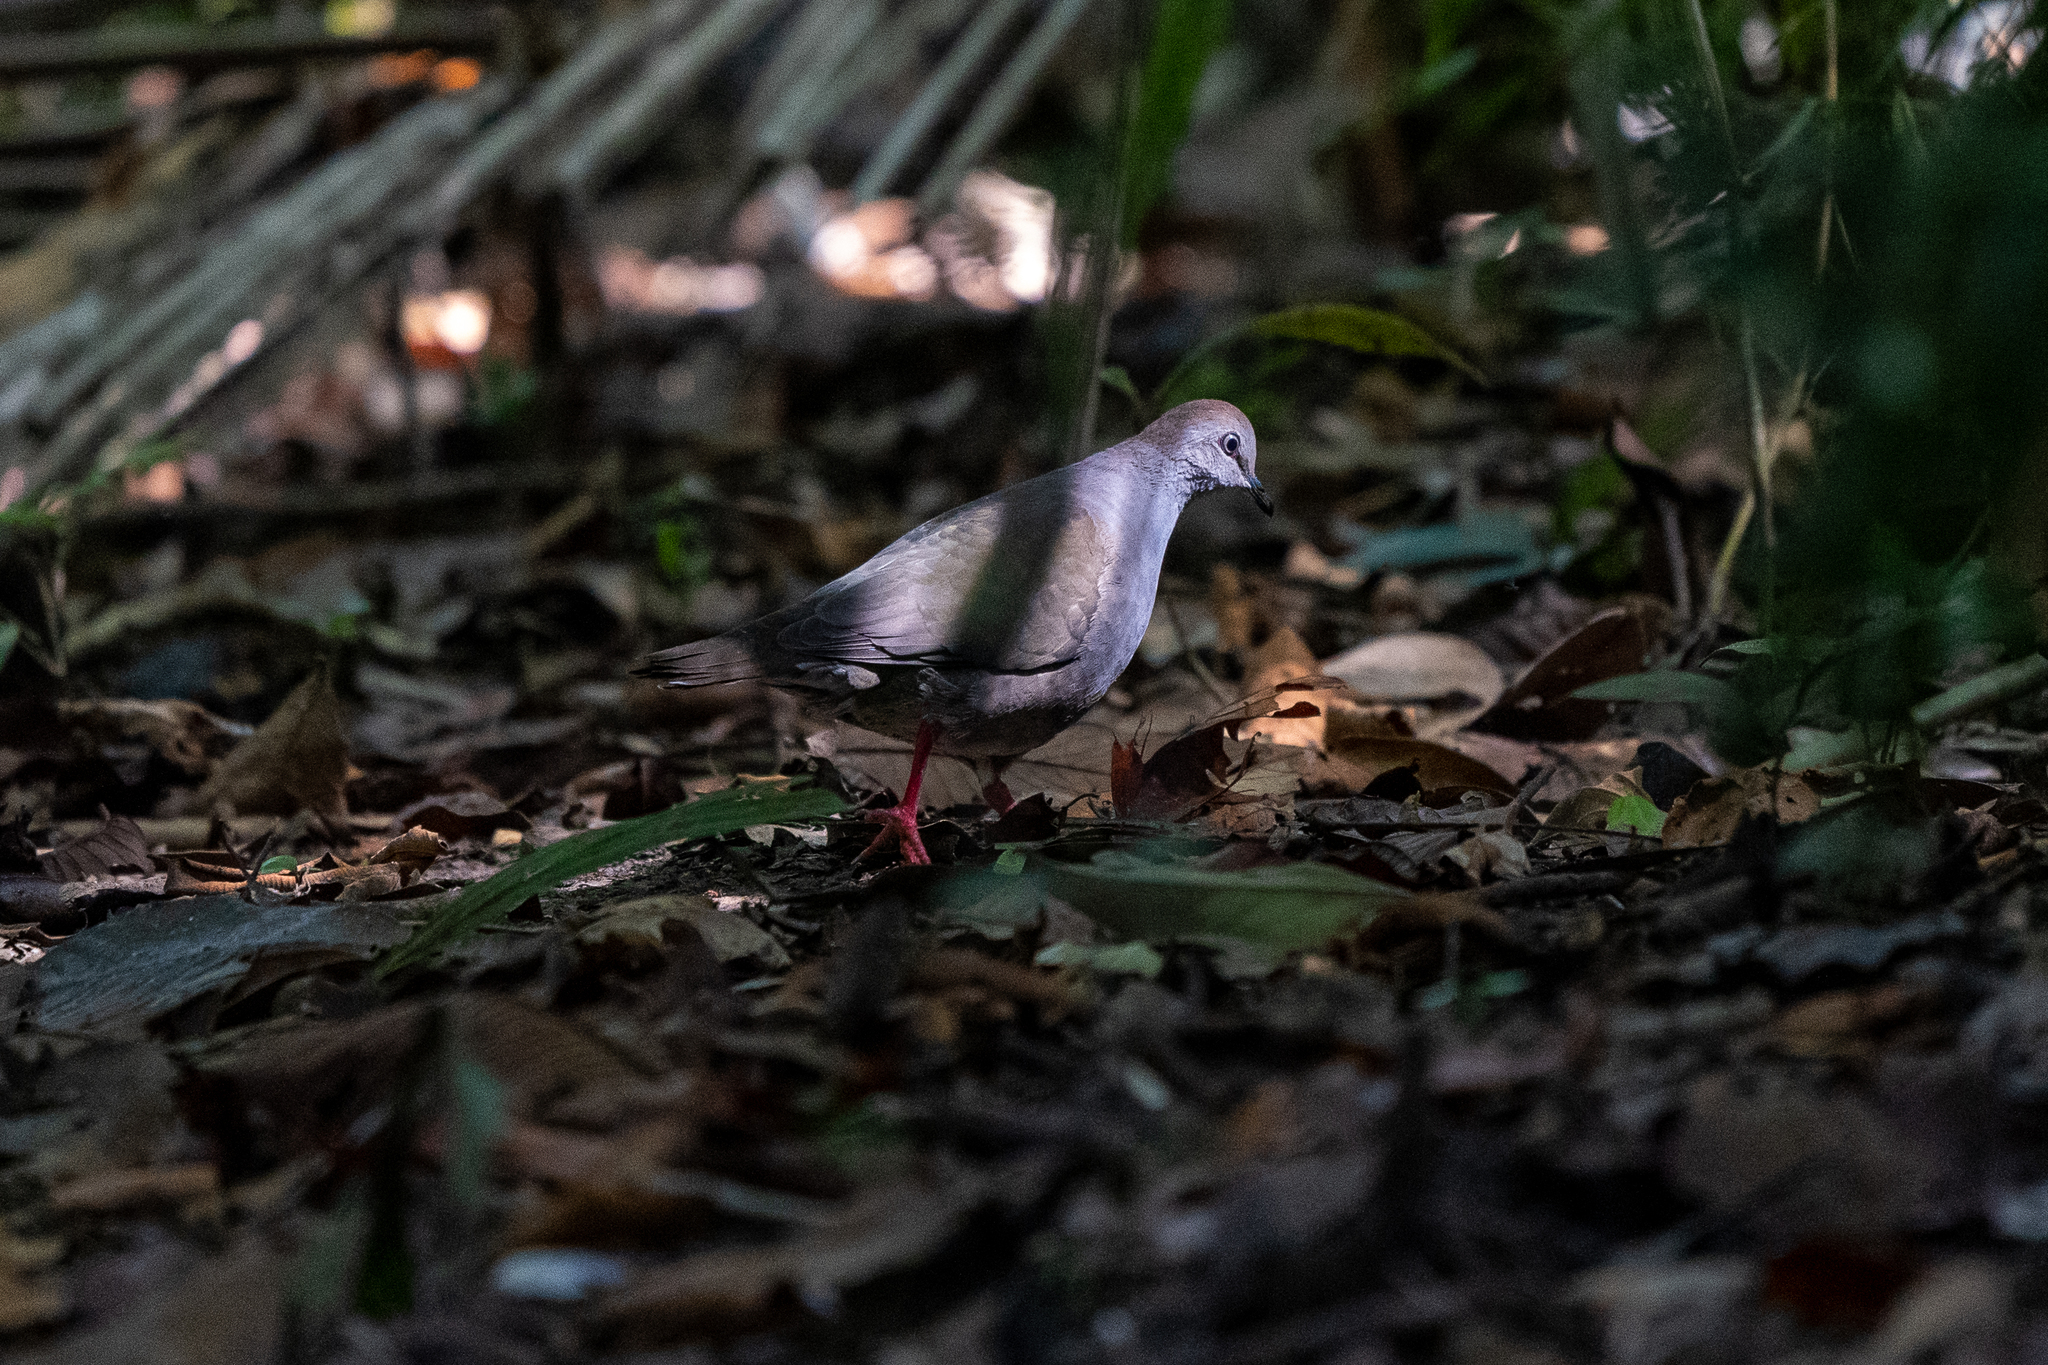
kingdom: Animalia
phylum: Chordata
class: Aves
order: Columbiformes
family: Columbidae
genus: Leptotila
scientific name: Leptotila cassinii
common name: Grey-chested dove
